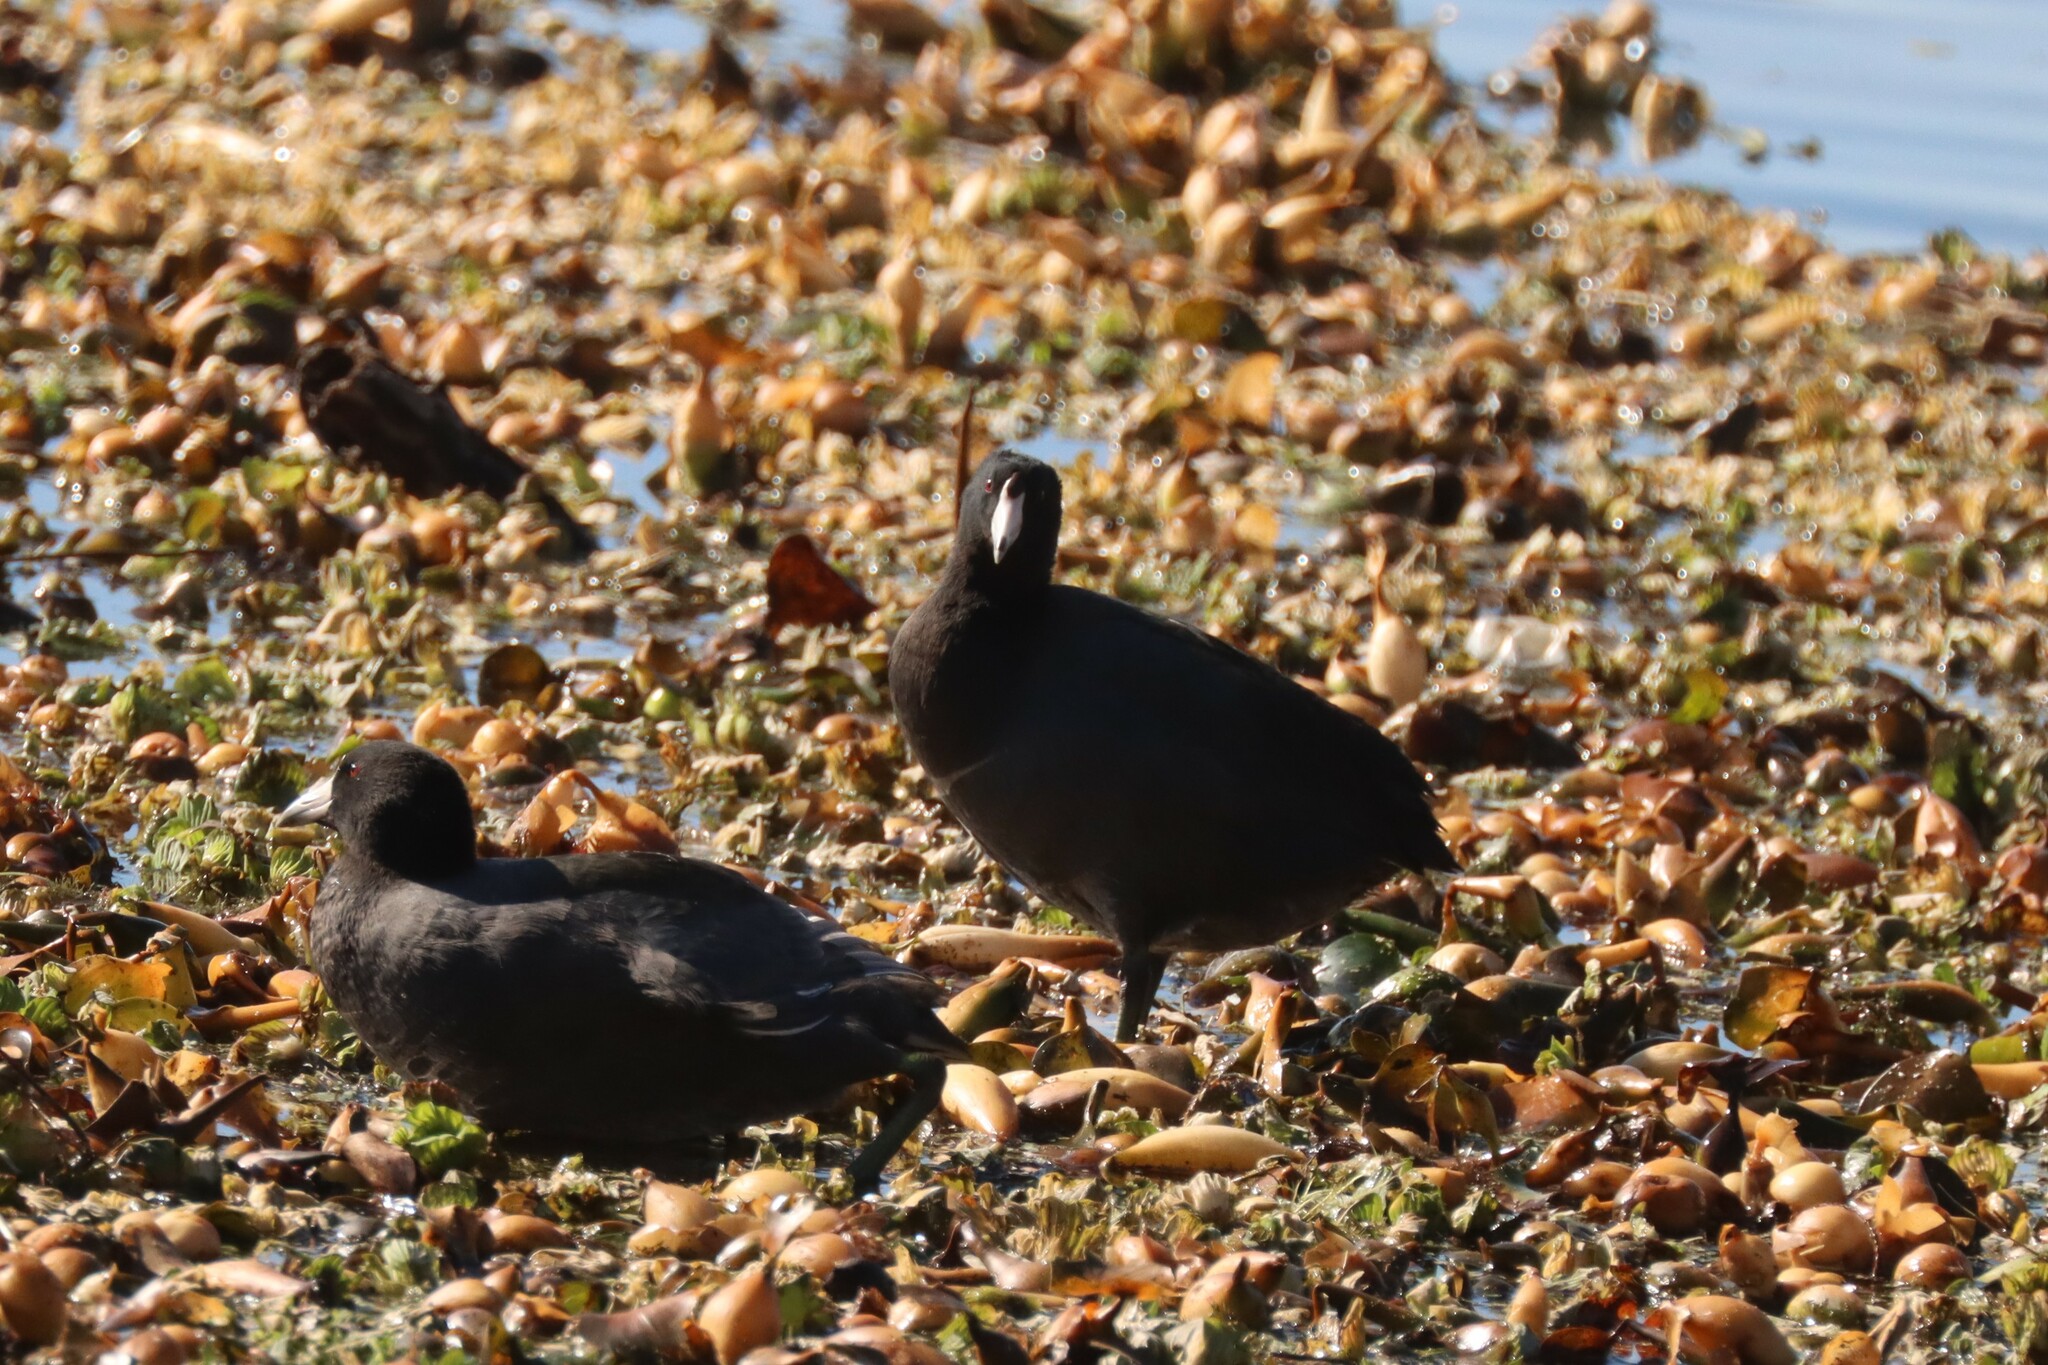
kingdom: Animalia
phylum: Chordata
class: Aves
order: Gruiformes
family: Rallidae
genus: Fulica
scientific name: Fulica americana
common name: American coot
